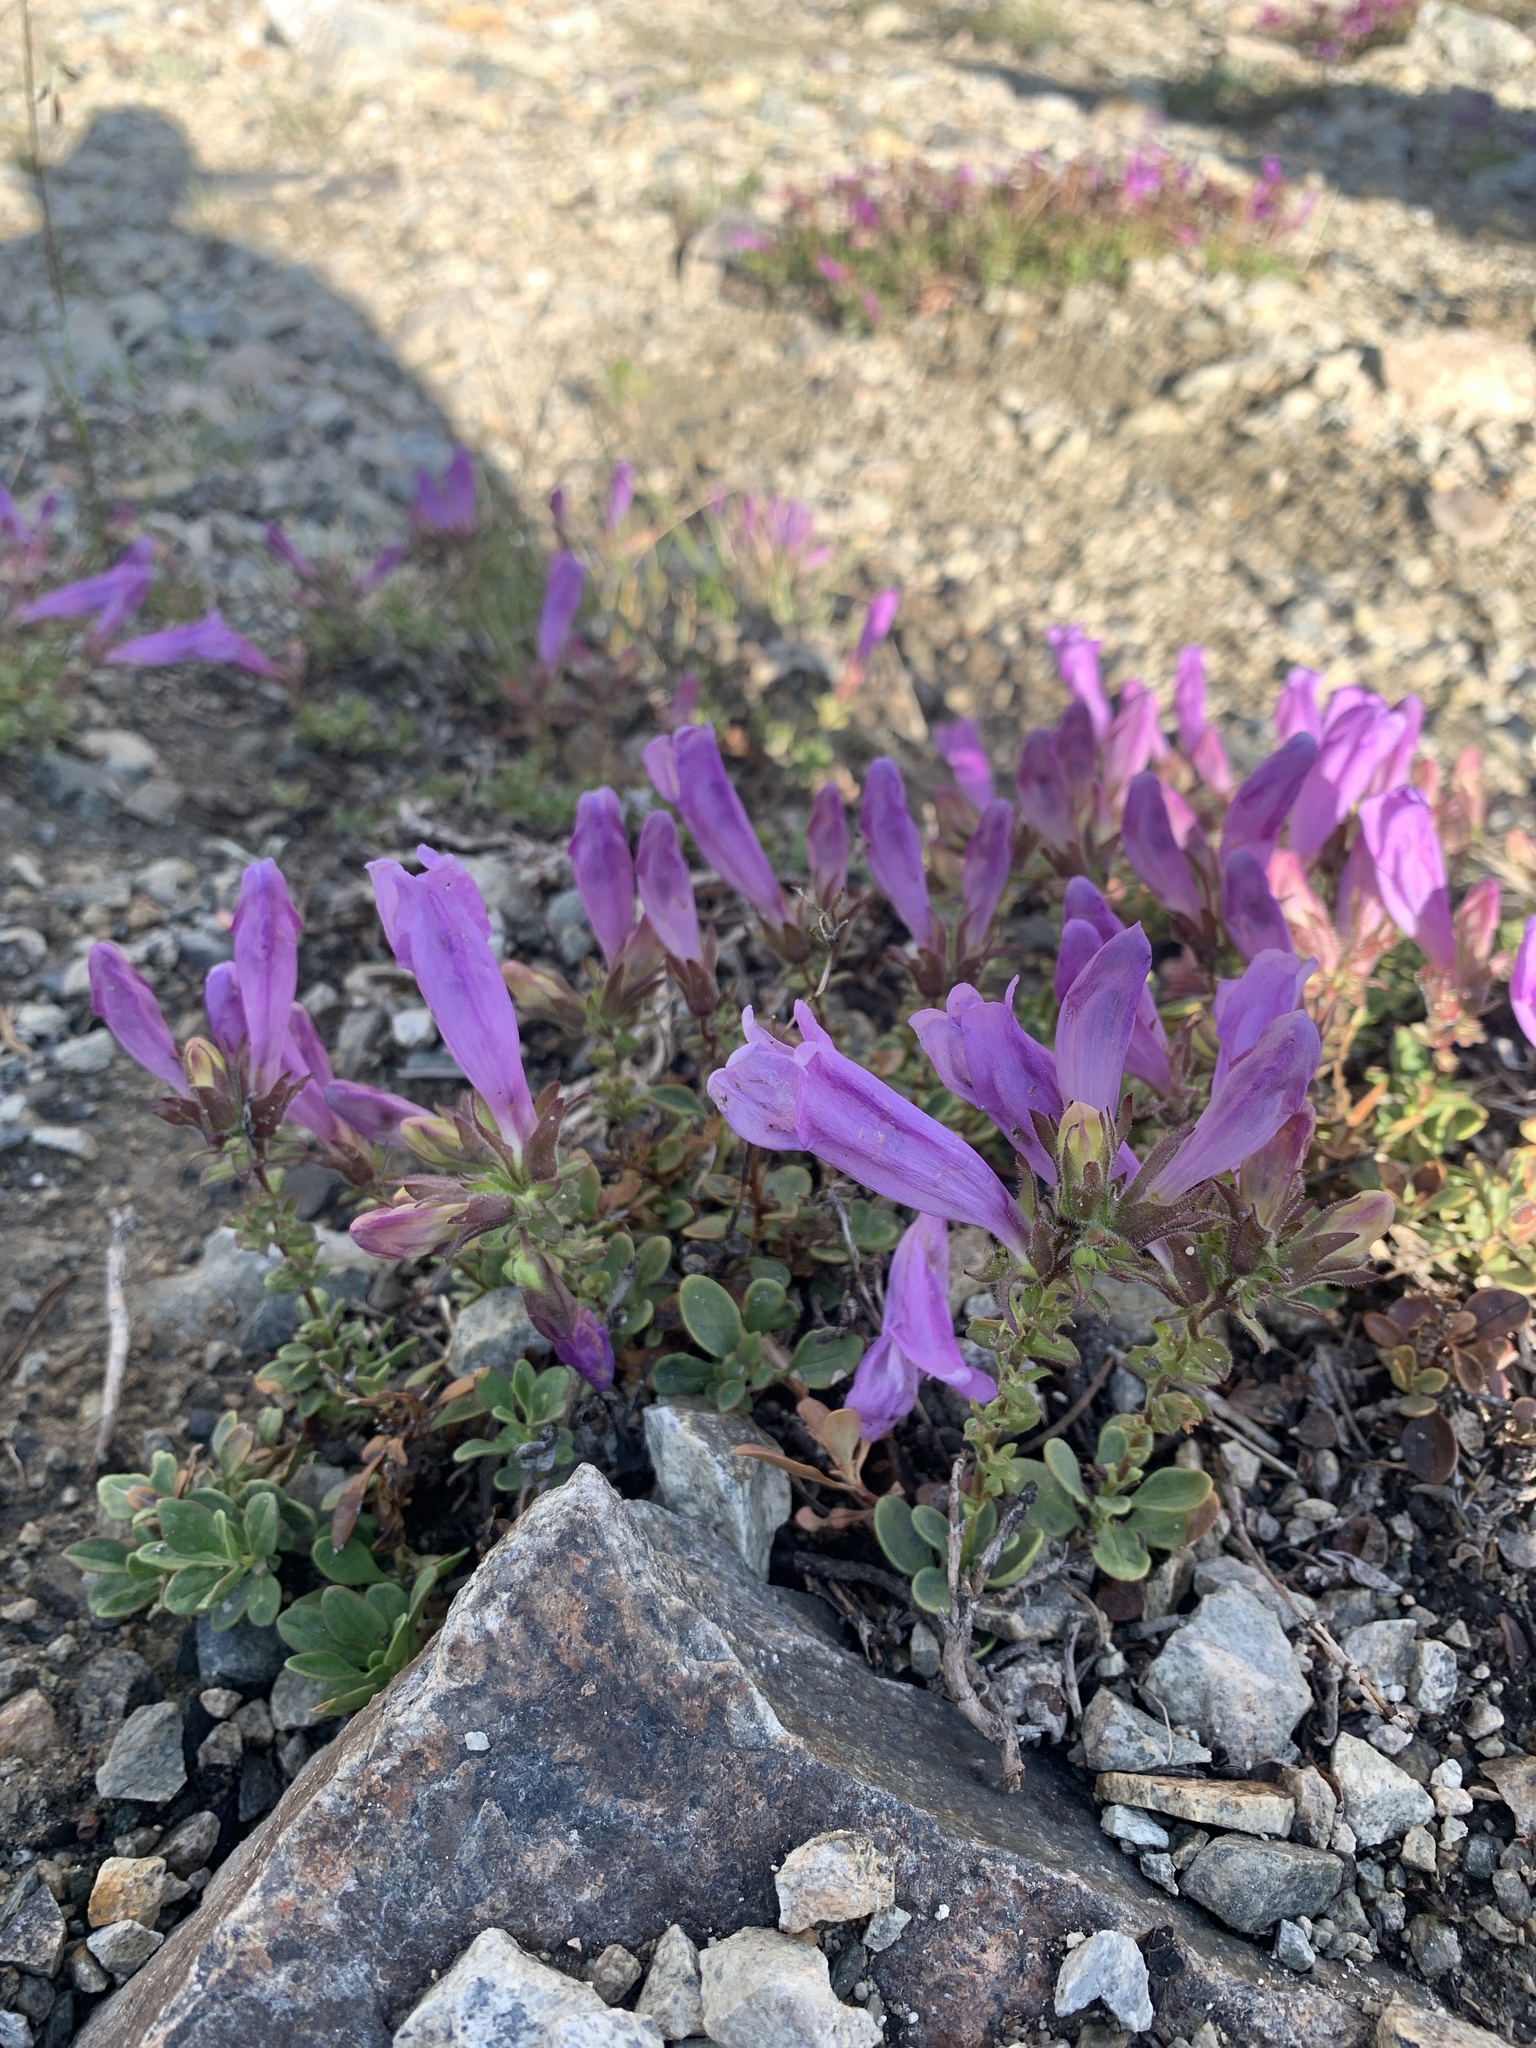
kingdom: Plantae
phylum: Tracheophyta
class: Magnoliopsida
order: Lamiales
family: Plantaginaceae
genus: Penstemon
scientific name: Penstemon davidsonii
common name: Davidson's penstemon
